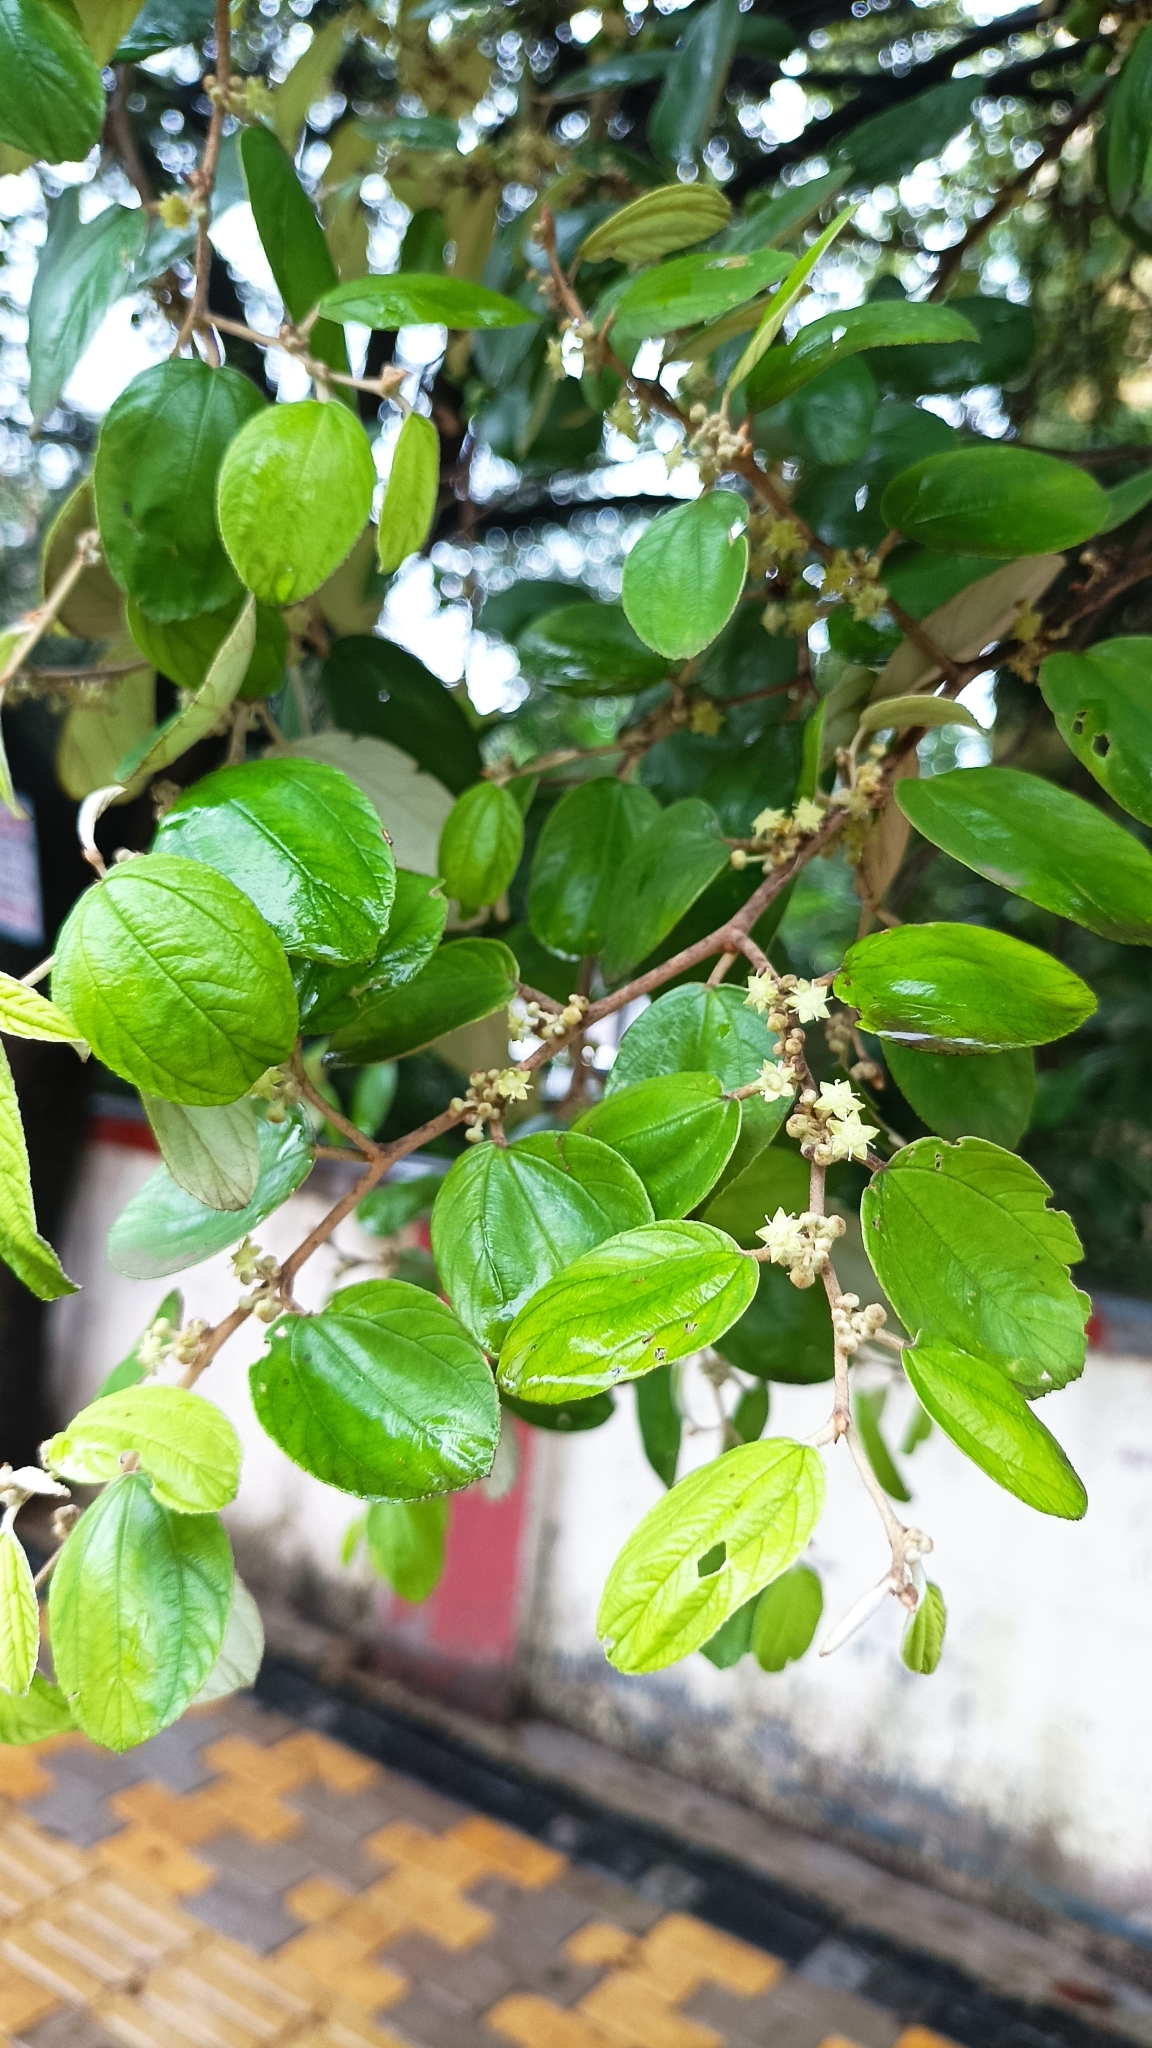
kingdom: Plantae
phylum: Tracheophyta
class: Magnoliopsida
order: Rosales
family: Rhamnaceae
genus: Ziziphus
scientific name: Ziziphus jujuba
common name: Jujube red date
